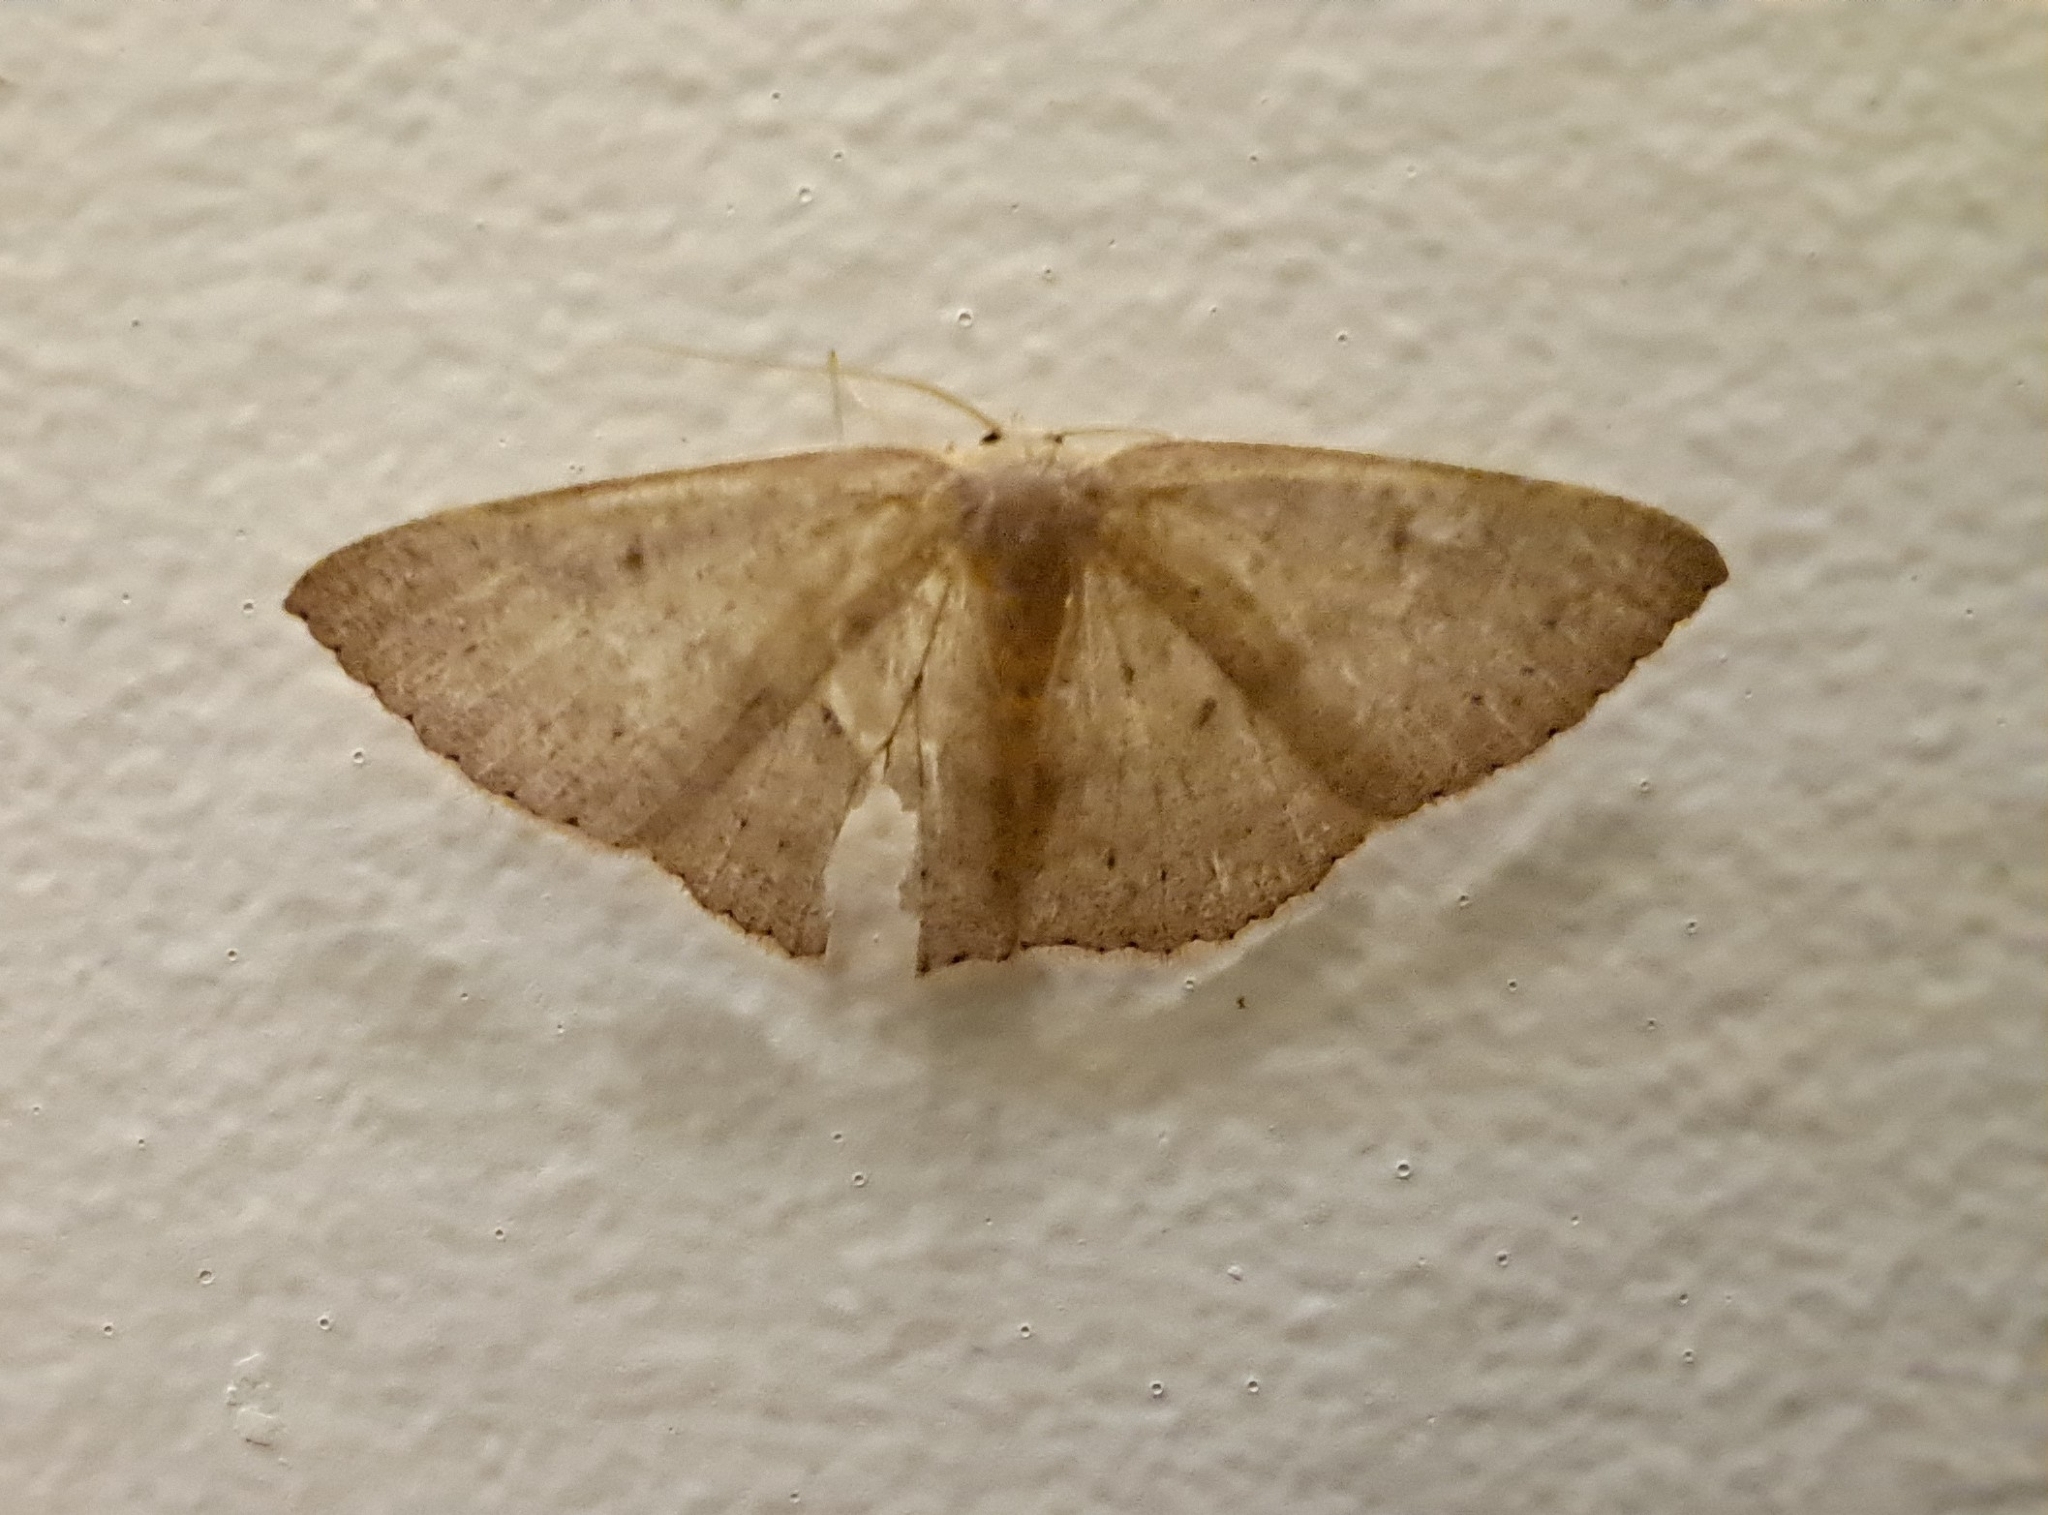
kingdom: Animalia
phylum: Arthropoda
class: Insecta
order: Lepidoptera
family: Geometridae
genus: Cyclophora
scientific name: Cyclophora obstataria
